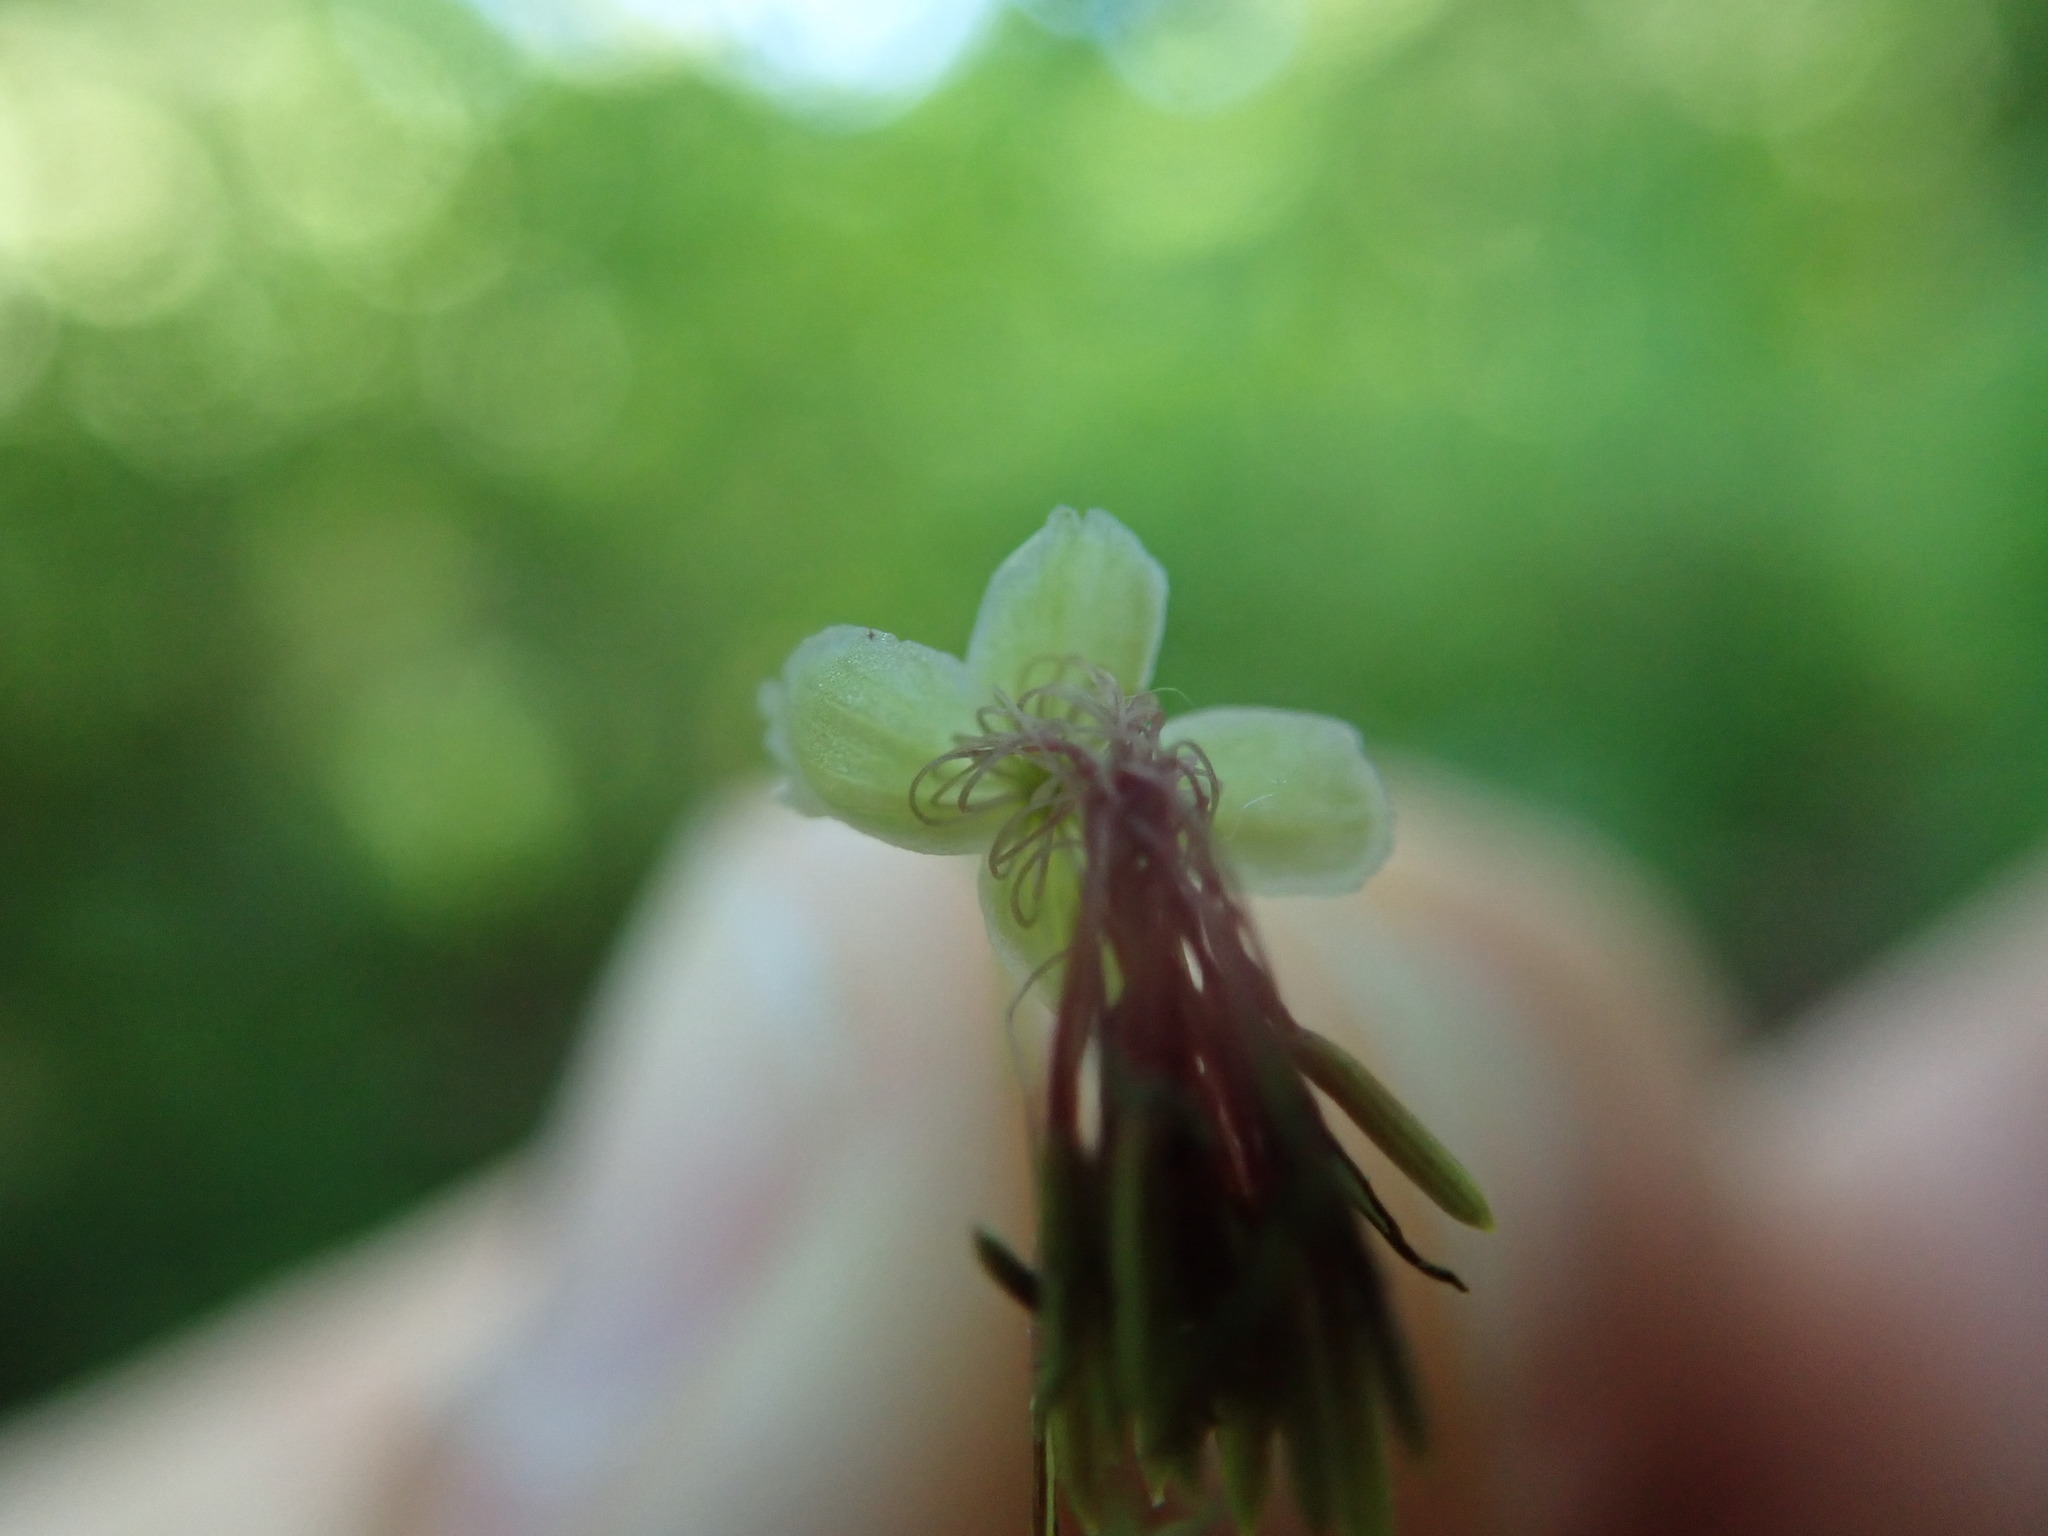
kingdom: Plantae
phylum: Tracheophyta
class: Magnoliopsida
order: Ranunculales
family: Ranunculaceae
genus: Thalictrum
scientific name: Thalictrum occidentale
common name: Western meadow-rue
